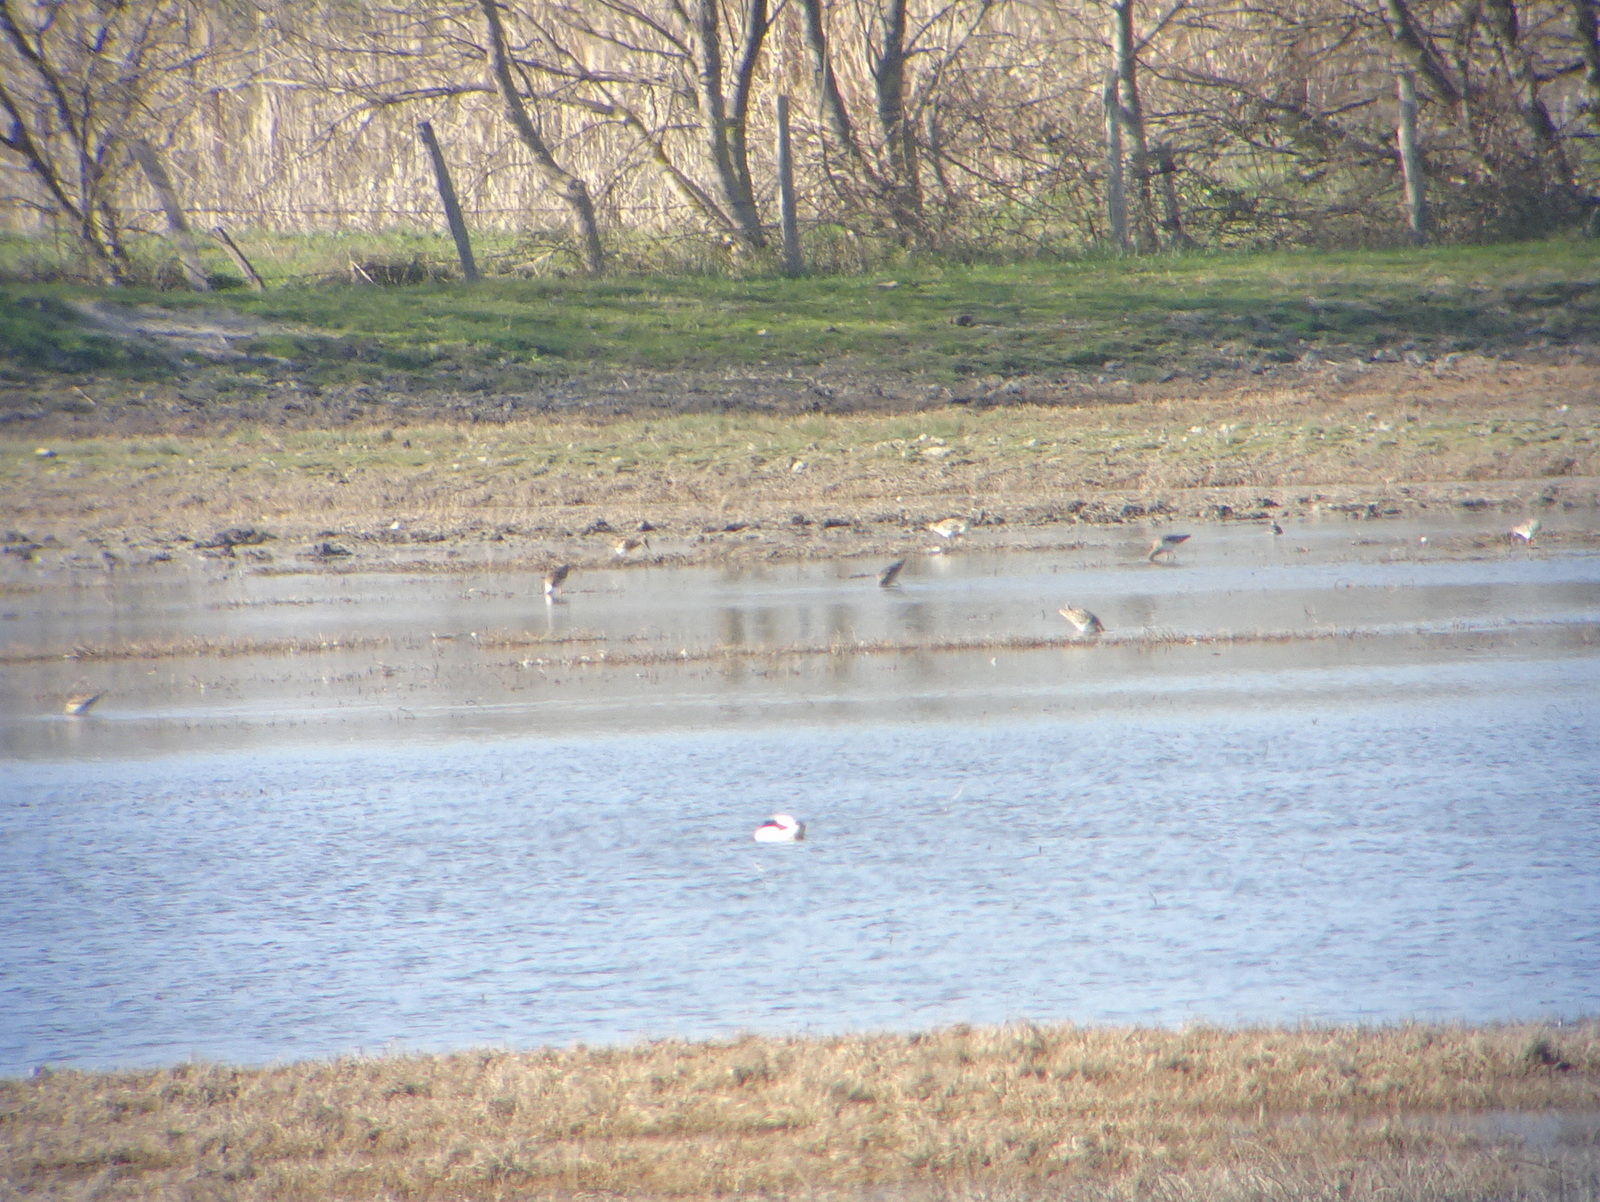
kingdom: Animalia
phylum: Chordata
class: Aves
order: Charadriiformes
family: Scolopacidae
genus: Calidris
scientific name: Calidris pugnax
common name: Ruff
